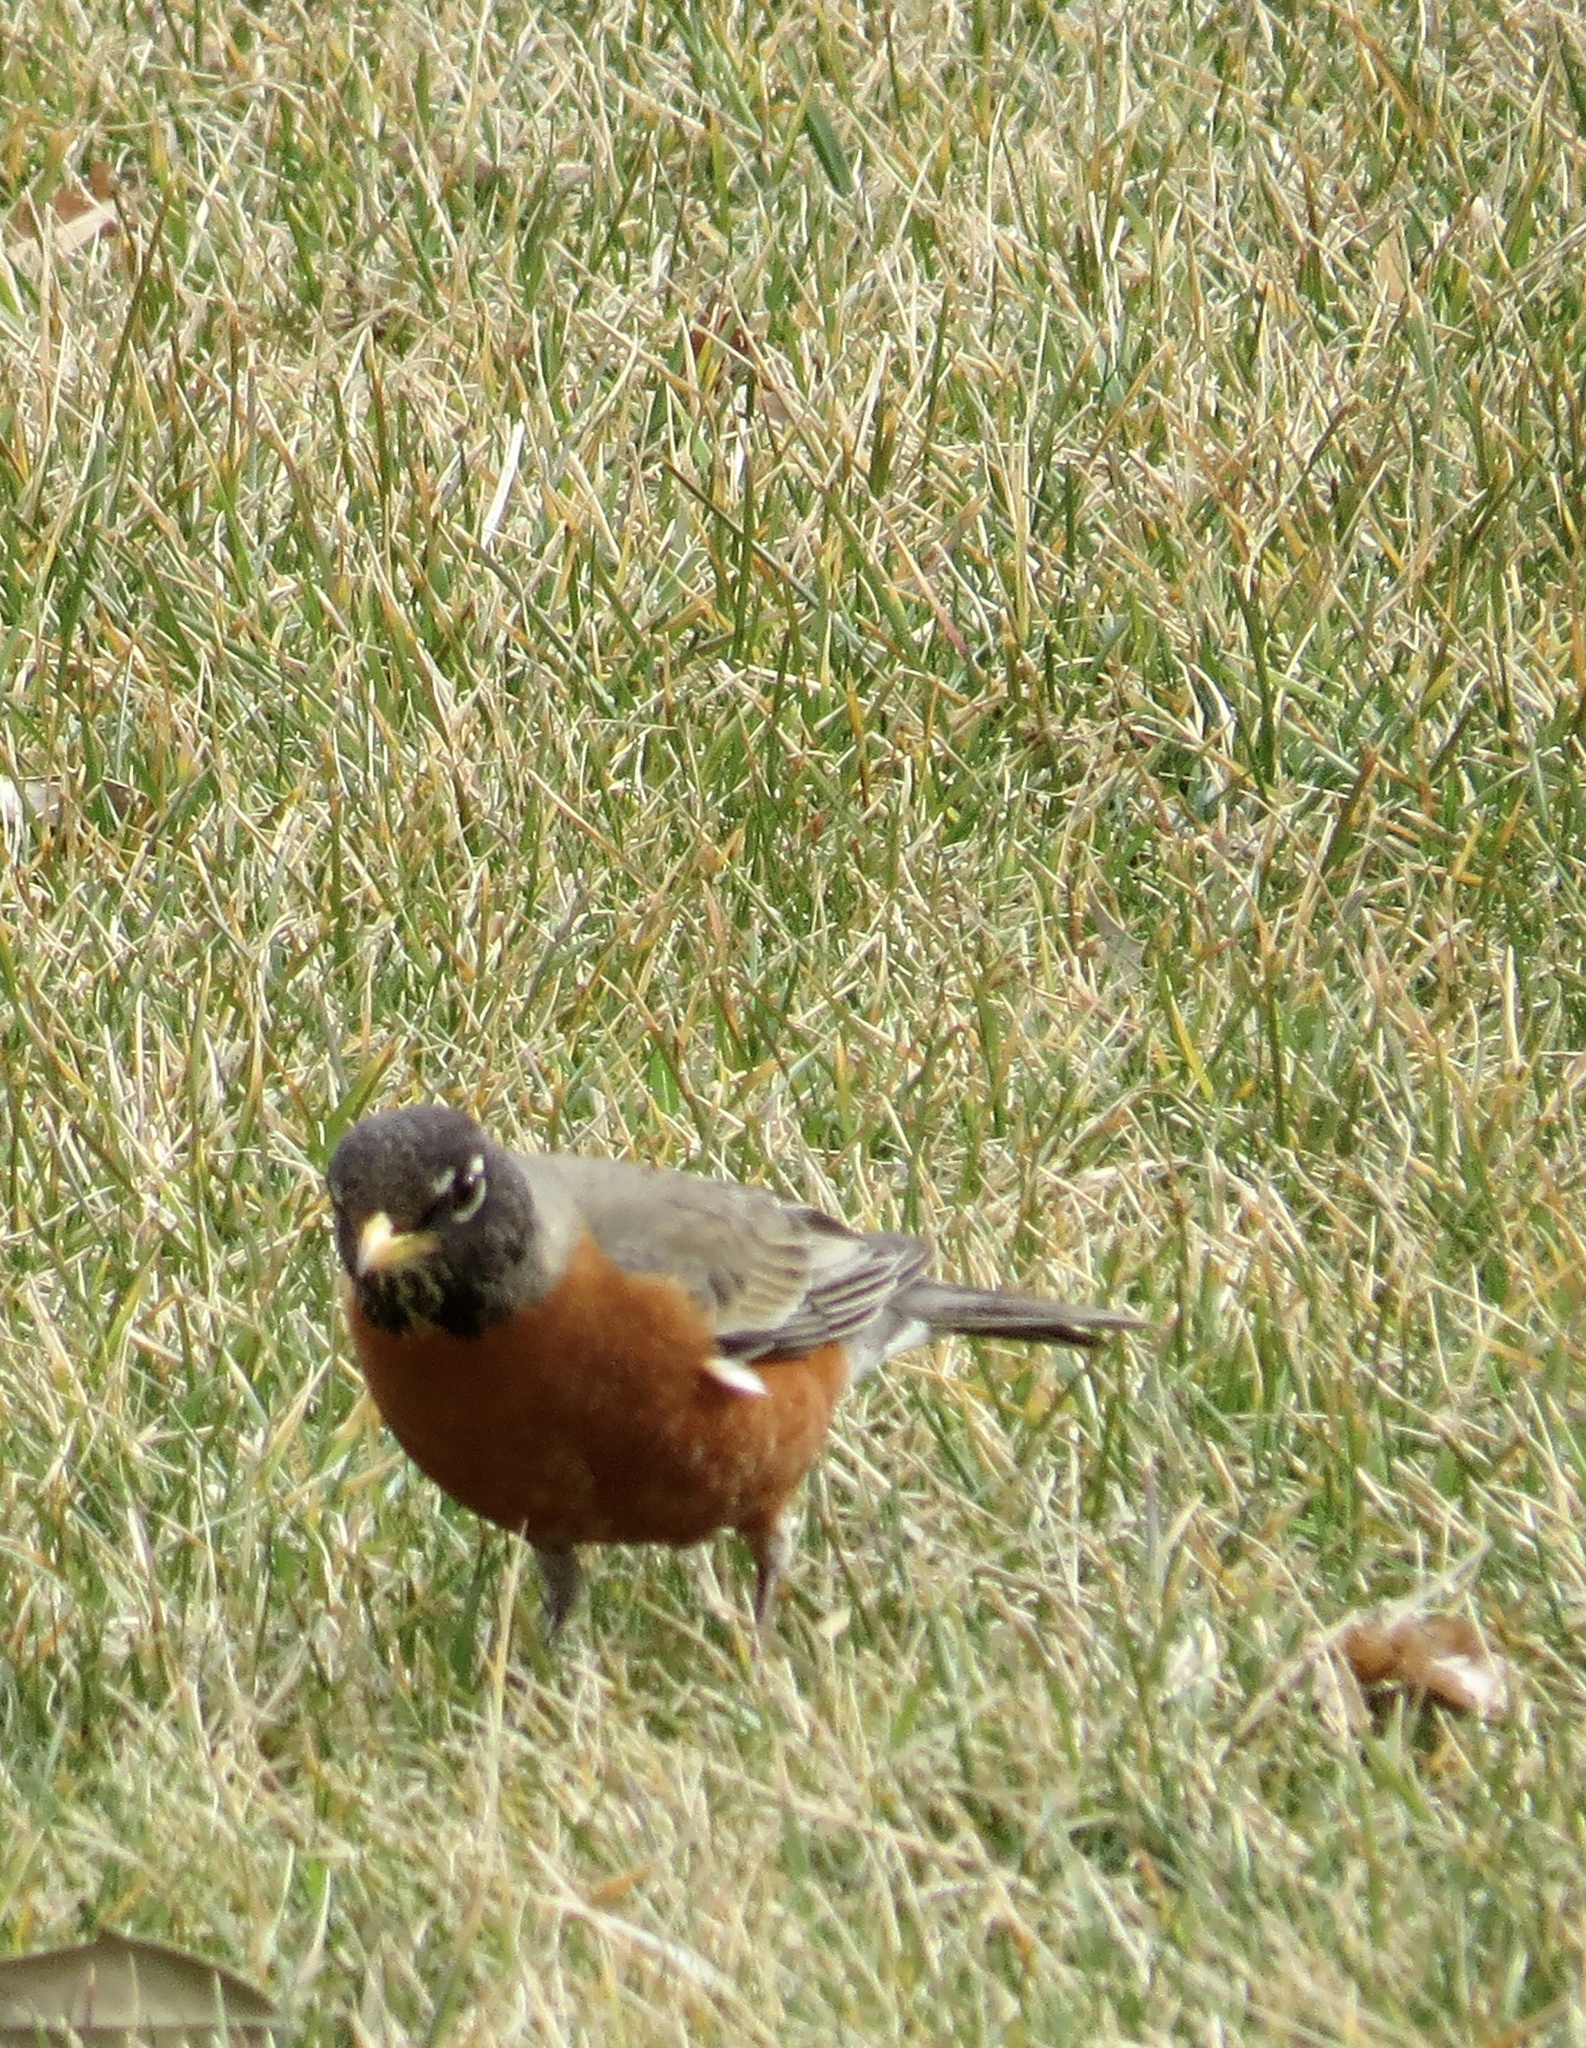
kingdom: Animalia
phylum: Chordata
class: Aves
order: Passeriformes
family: Turdidae
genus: Turdus
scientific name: Turdus migratorius
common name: American robin
